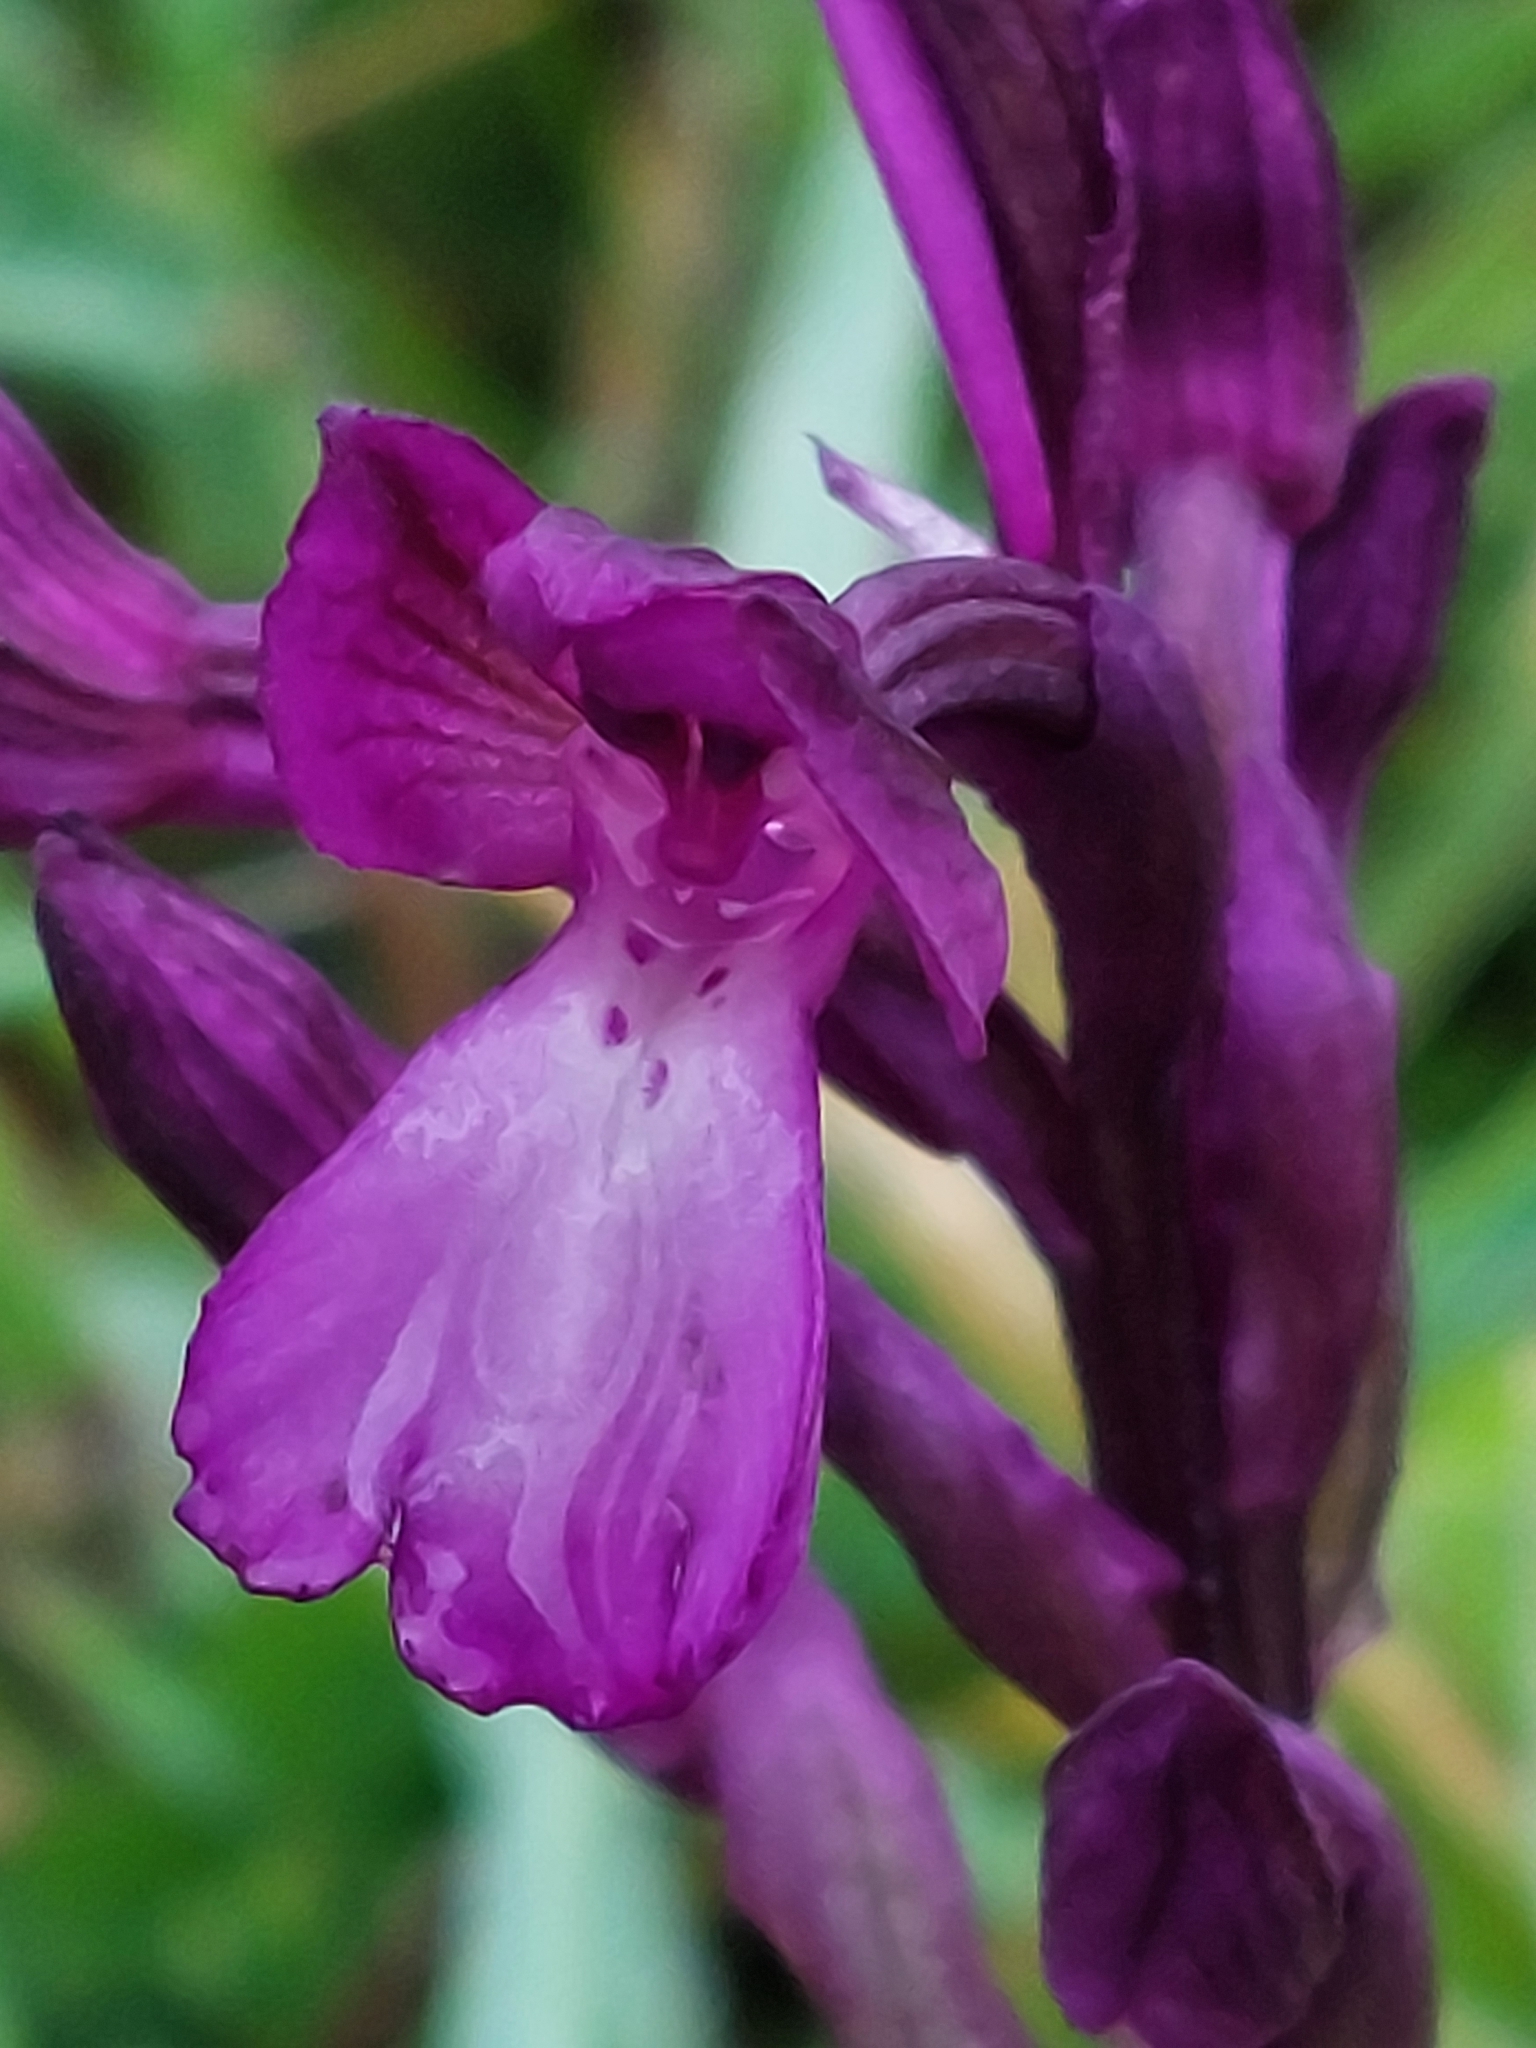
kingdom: Plantae
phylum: Tracheophyta
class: Liliopsida
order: Asparagales
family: Orchidaceae
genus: Anacamptis
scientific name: Anacamptis boryi
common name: Bory's anacamptis
